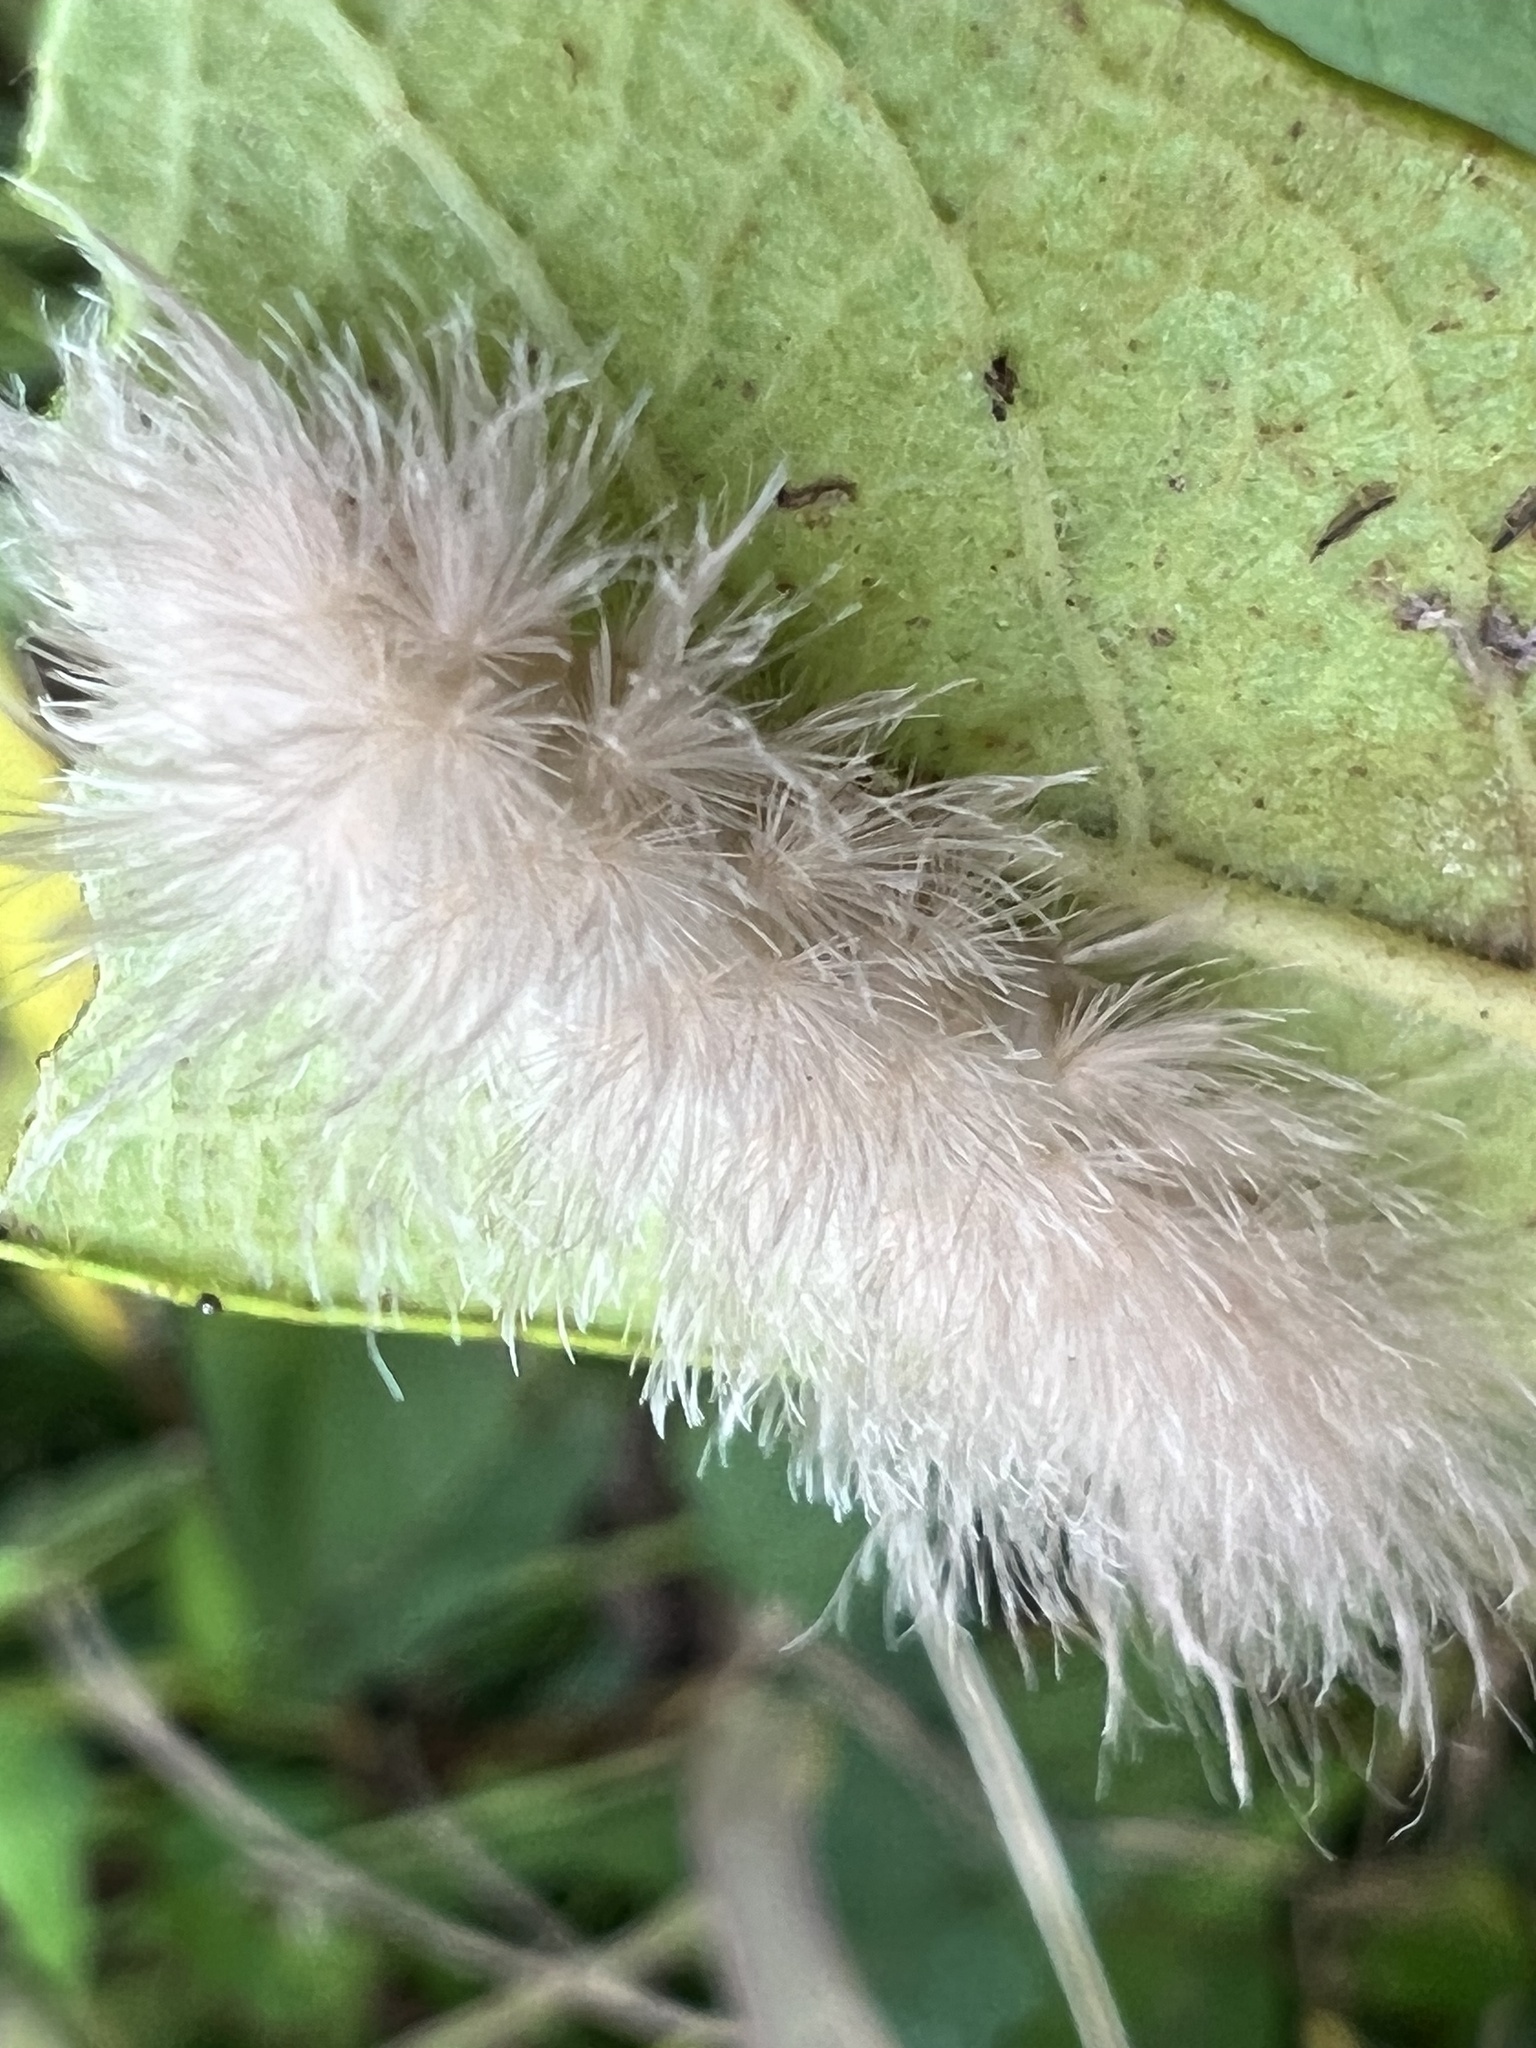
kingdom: Animalia
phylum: Arthropoda
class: Insecta
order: Lepidoptera
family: Erebidae
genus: Cycnia
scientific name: Cycnia tenera
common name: Delicate cycnia moth
